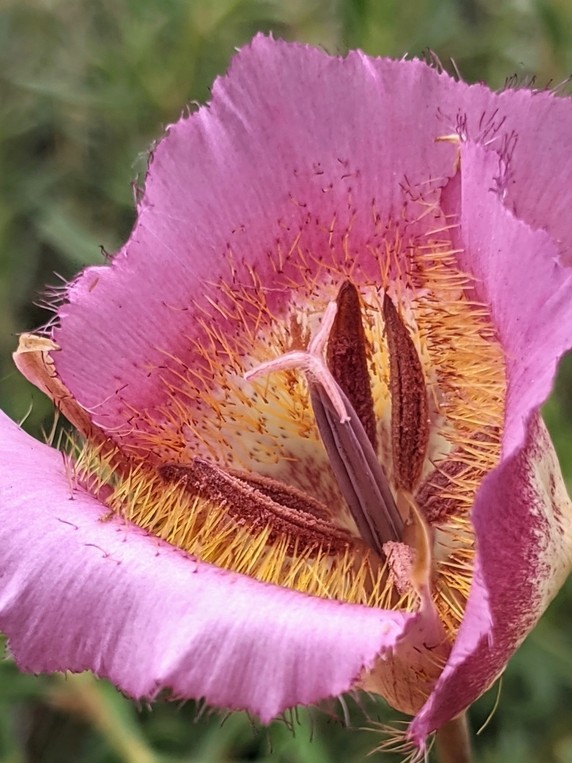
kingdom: Plantae
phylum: Tracheophyta
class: Liliopsida
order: Liliales
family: Liliaceae
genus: Calochortus
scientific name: Calochortus weedii
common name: Weed's mariposa-lily
